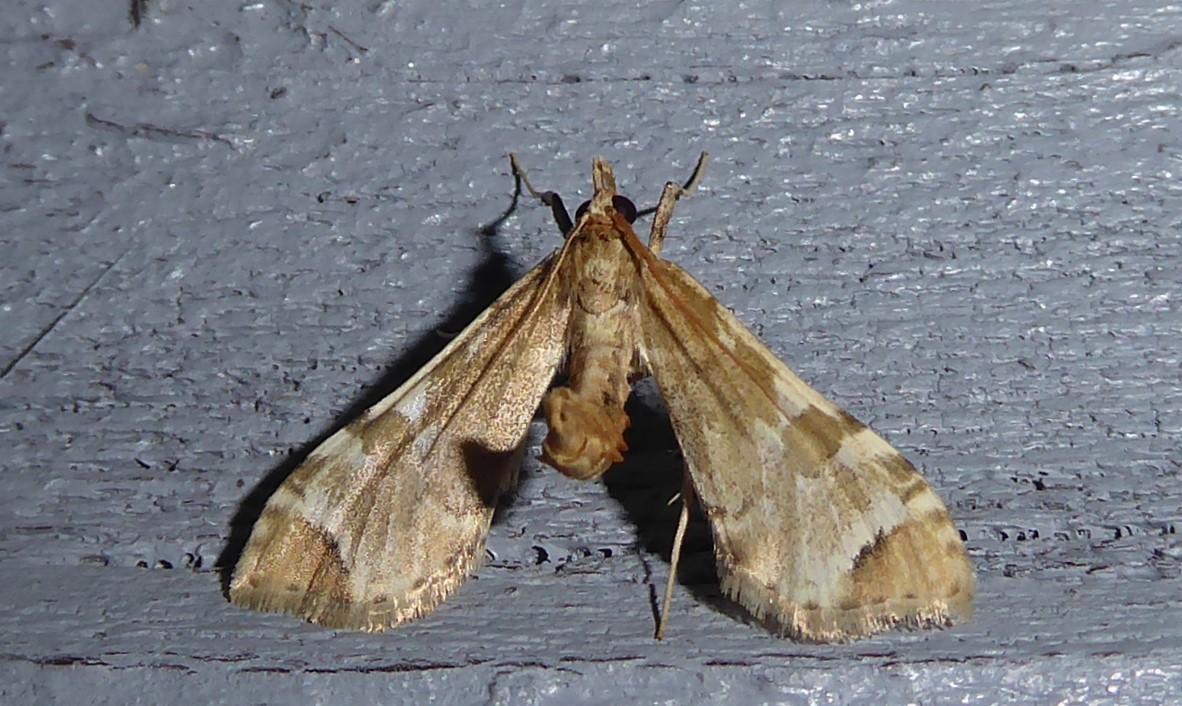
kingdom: Animalia
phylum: Arthropoda
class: Insecta
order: Lepidoptera
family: Crambidae
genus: Sceliodes
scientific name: Sceliodes cordalis
